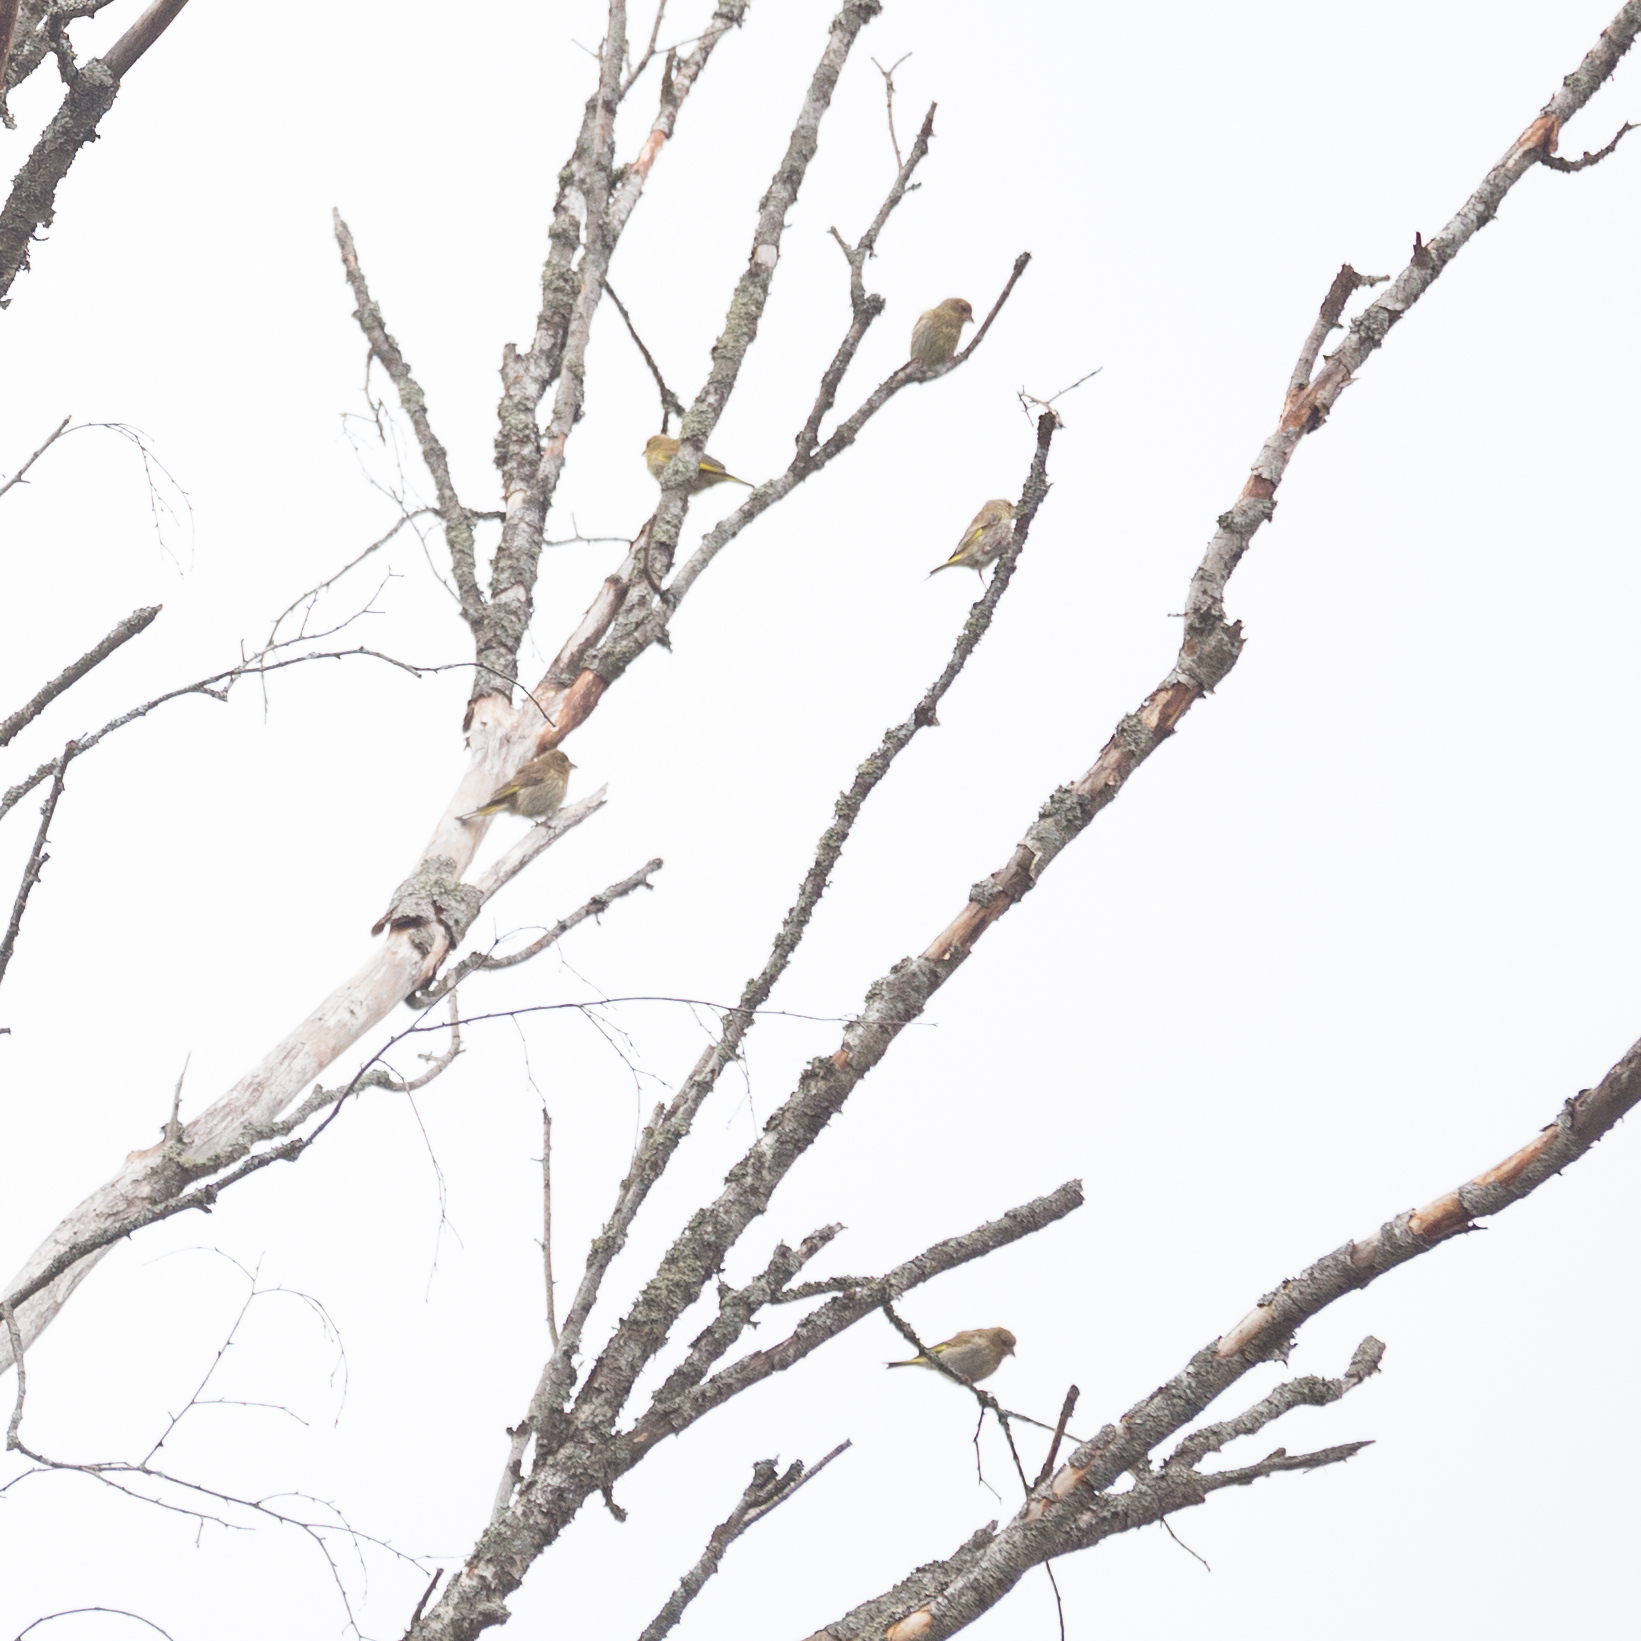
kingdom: Plantae
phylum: Tracheophyta
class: Liliopsida
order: Poales
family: Poaceae
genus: Chloris
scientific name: Chloris chloris
